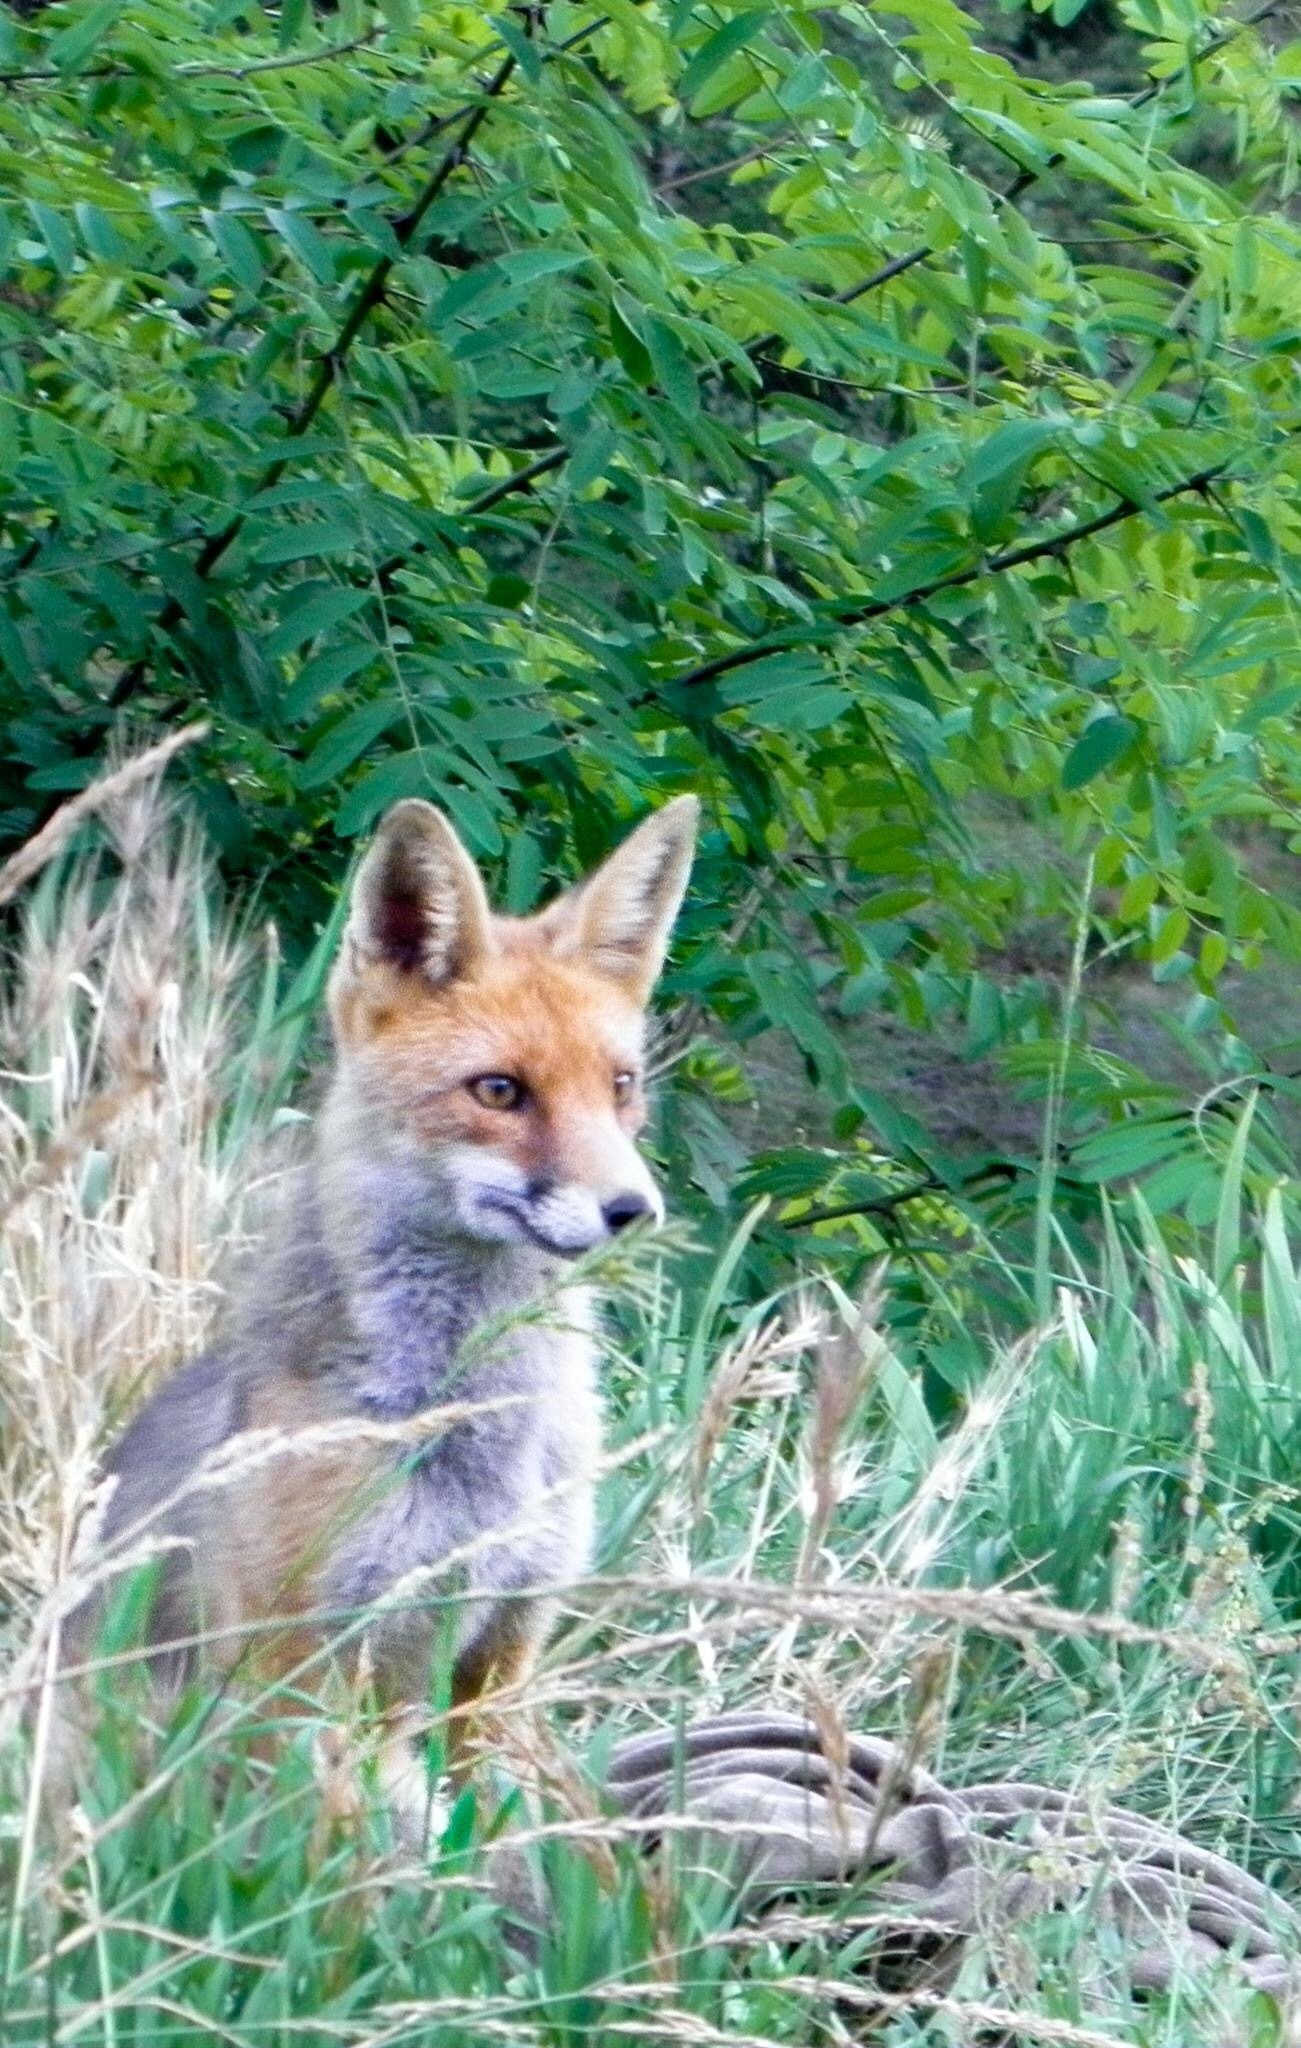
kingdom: Animalia
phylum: Chordata
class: Mammalia
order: Carnivora
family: Canidae
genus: Vulpes
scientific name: Vulpes vulpes
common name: Red fox
